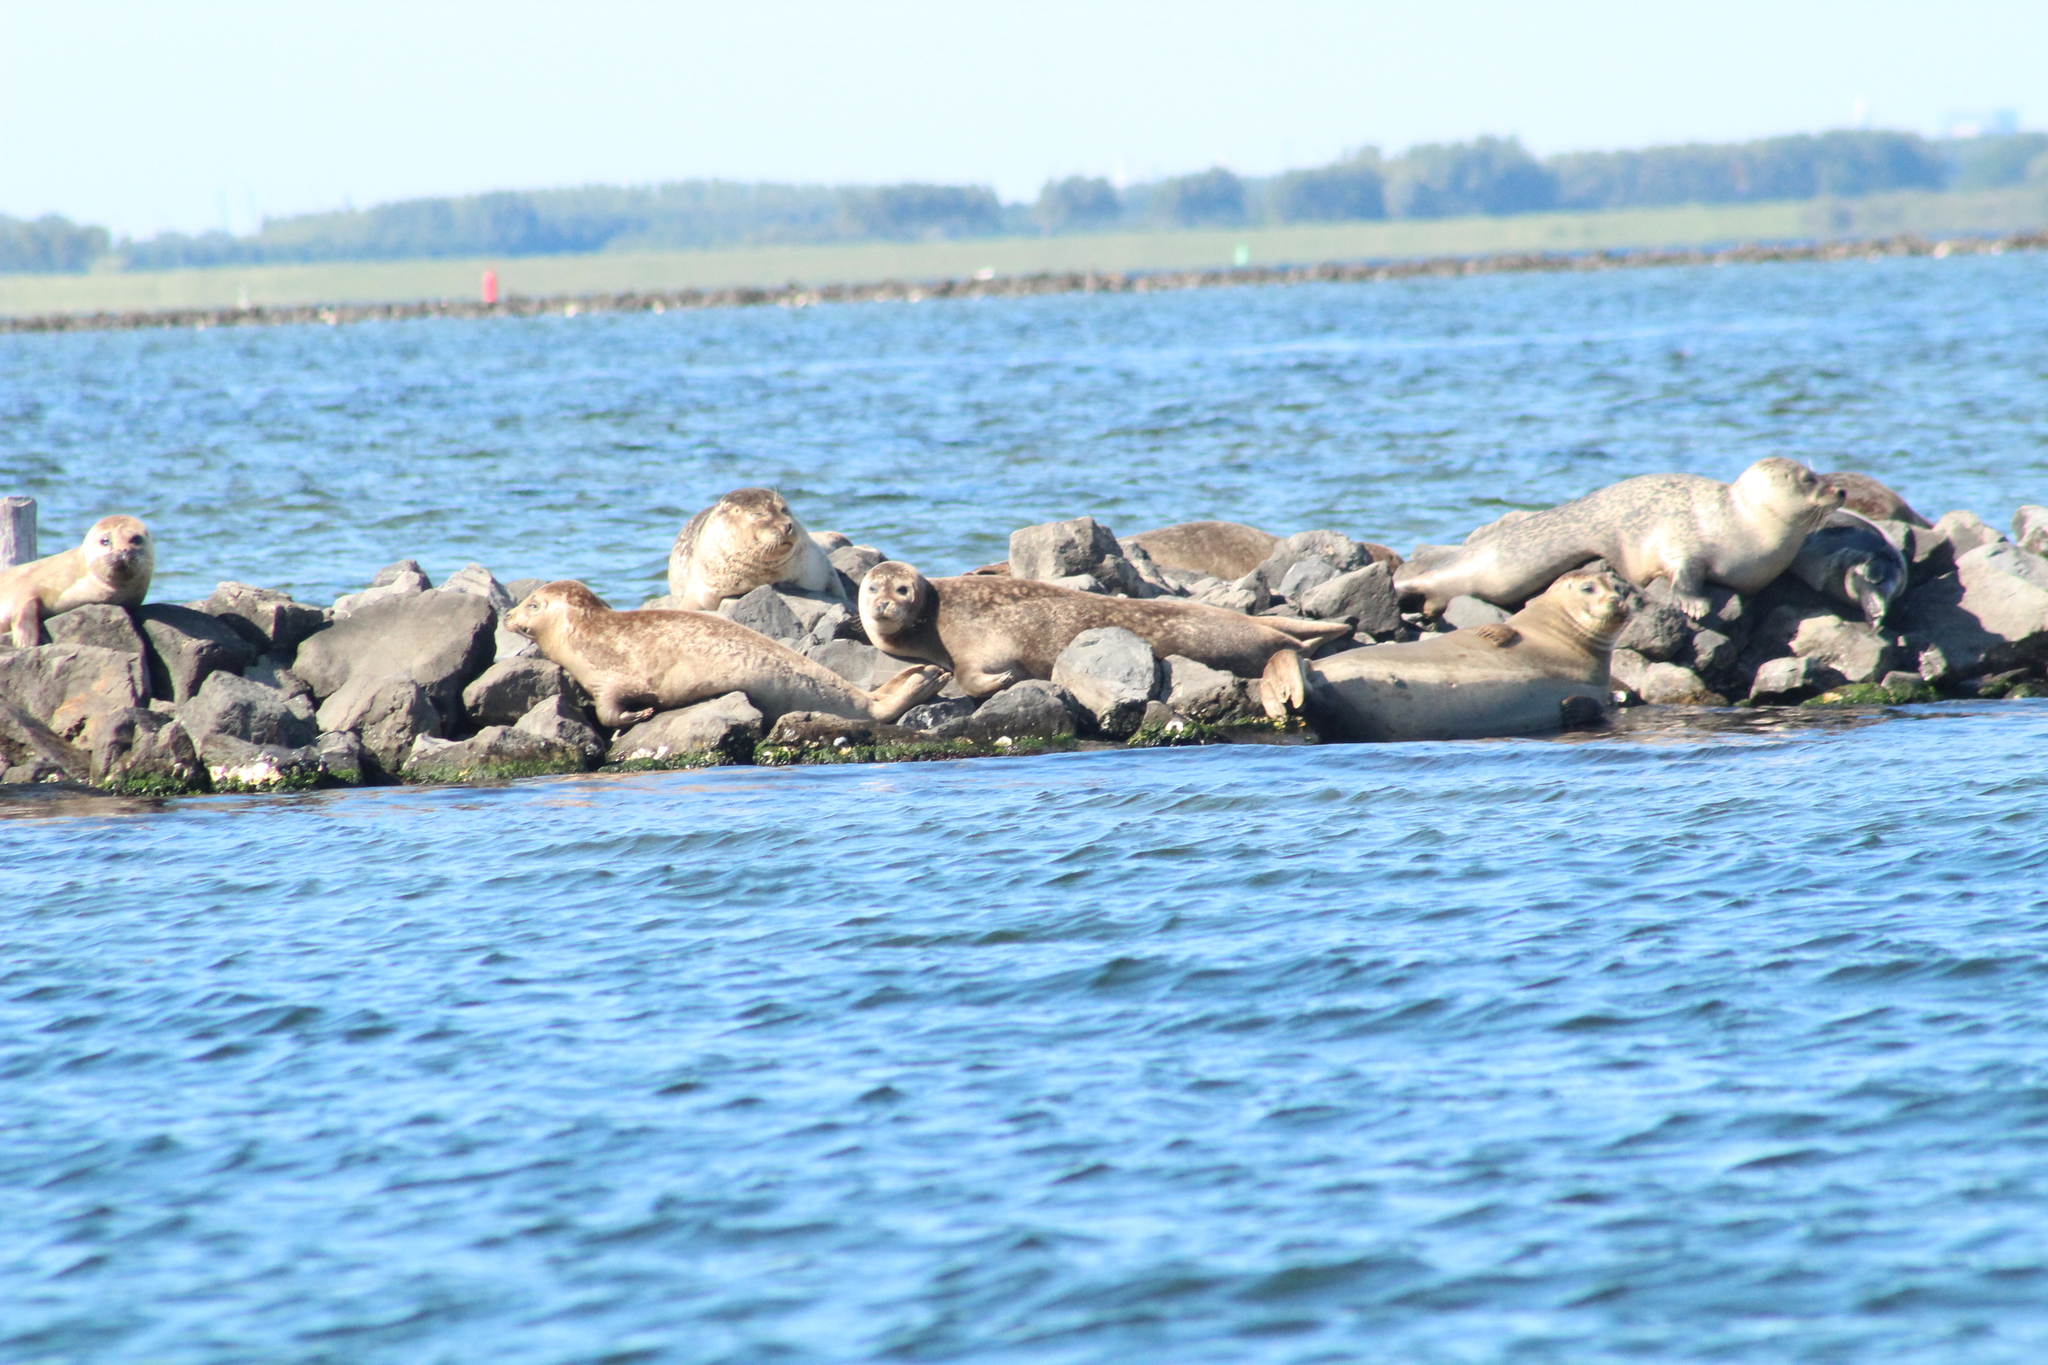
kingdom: Animalia
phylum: Chordata
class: Mammalia
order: Carnivora
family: Phocidae
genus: Phoca
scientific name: Phoca vitulina
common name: Harbor seal
